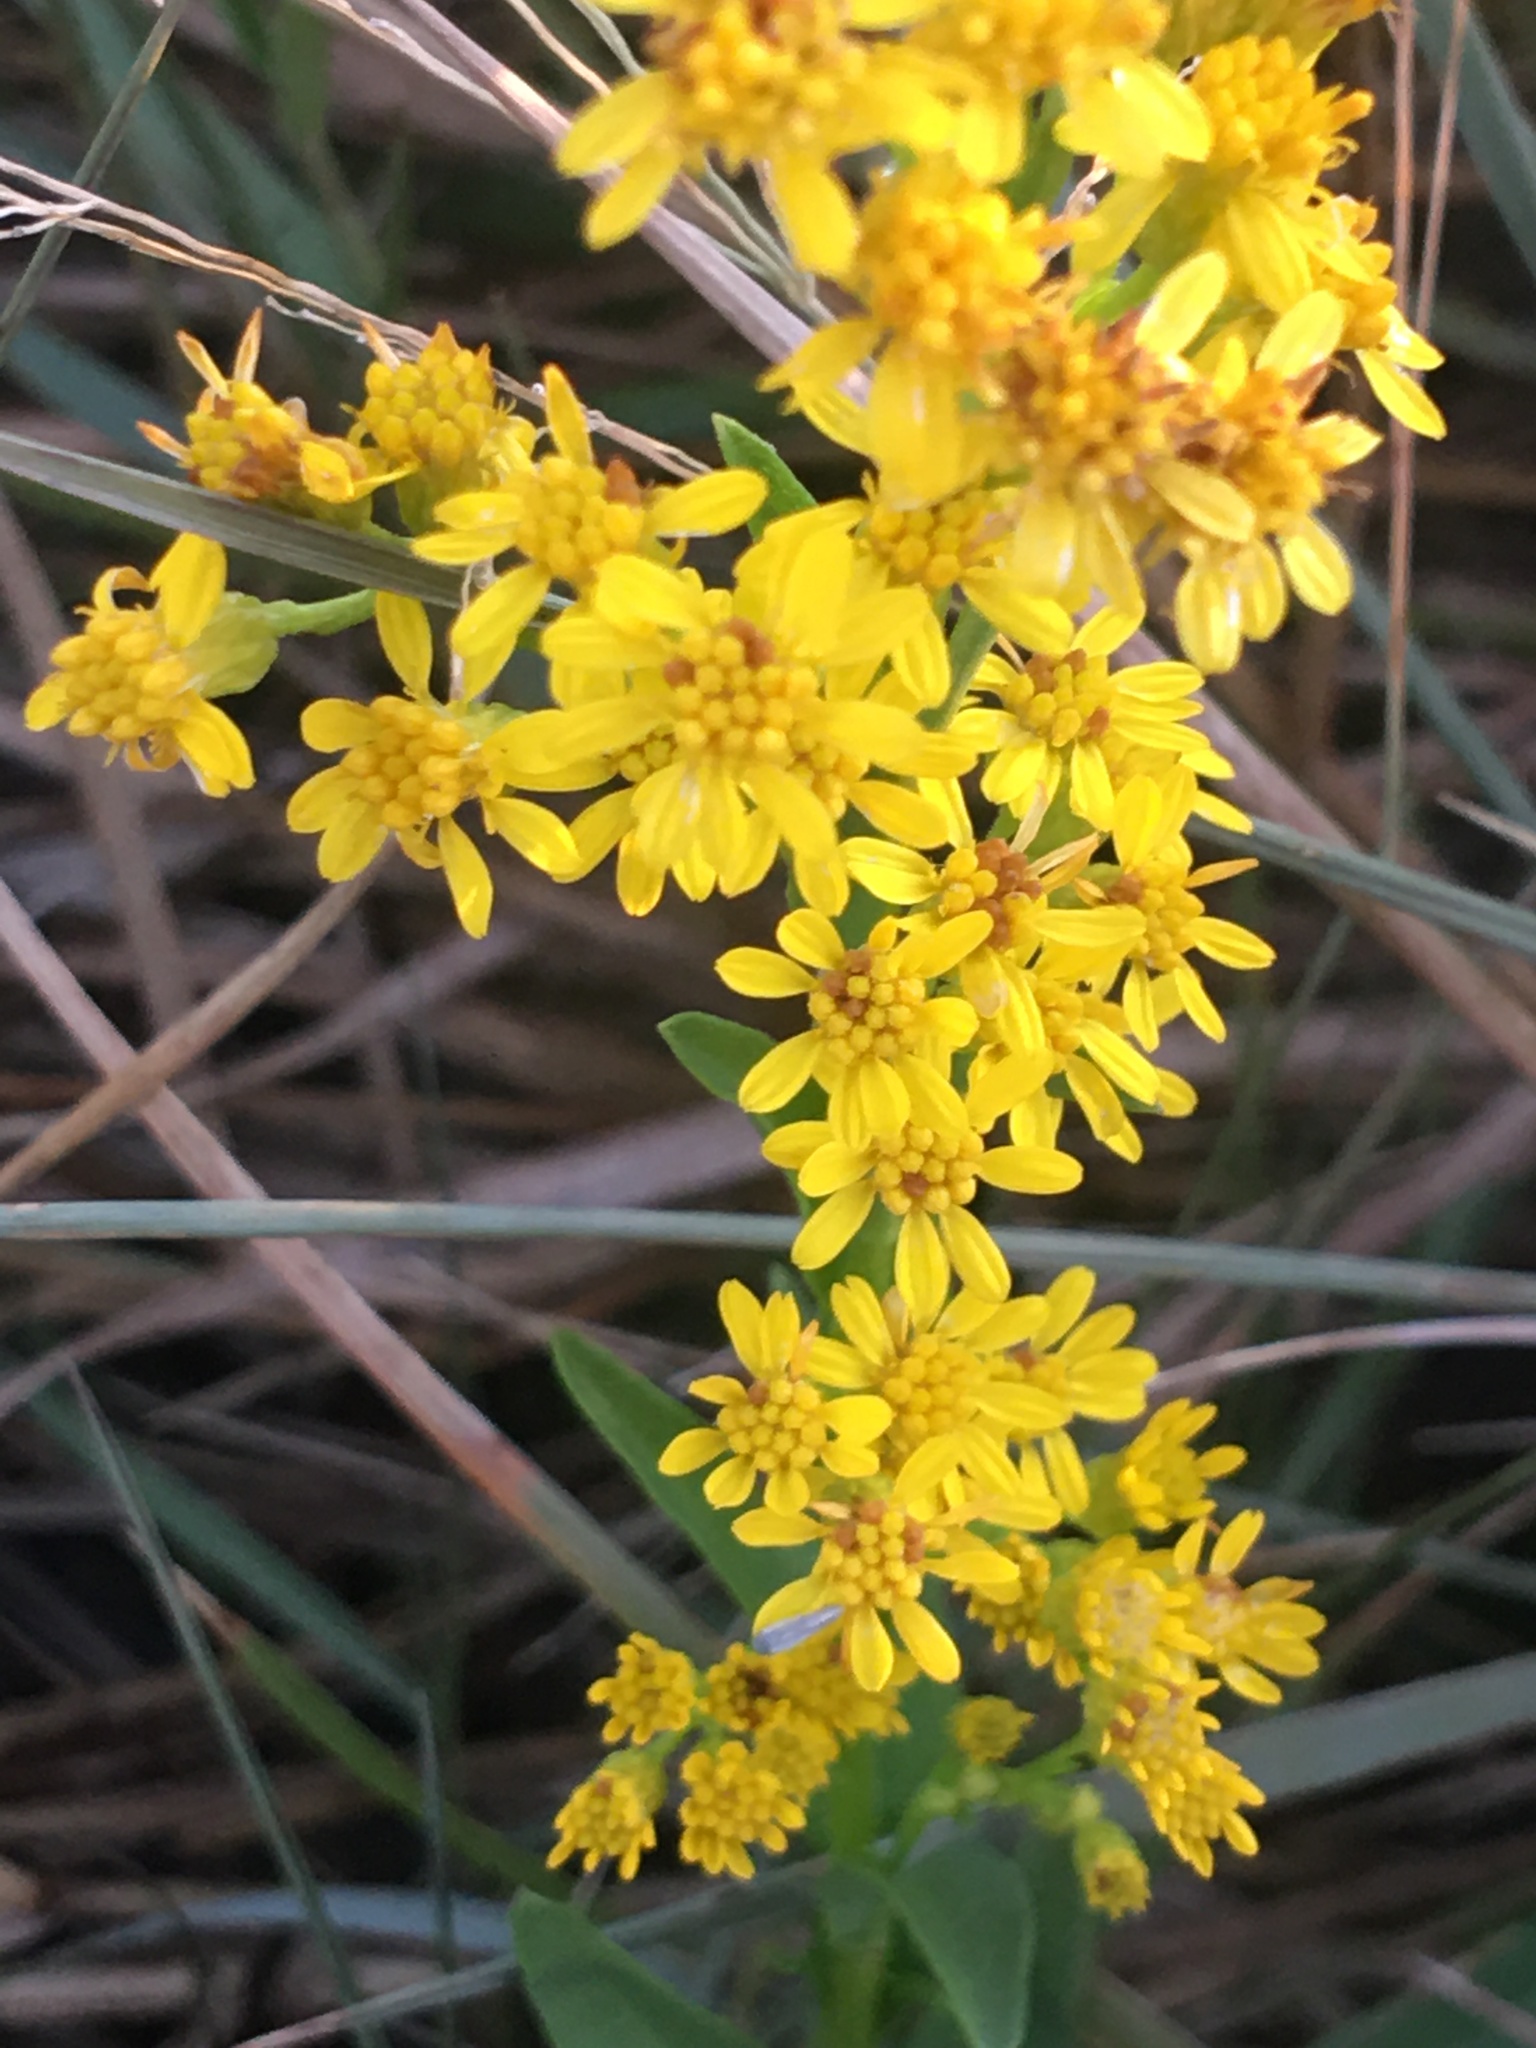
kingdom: Plantae
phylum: Tracheophyta
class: Magnoliopsida
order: Asterales
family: Asteraceae
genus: Solidago
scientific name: Solidago mexicana
